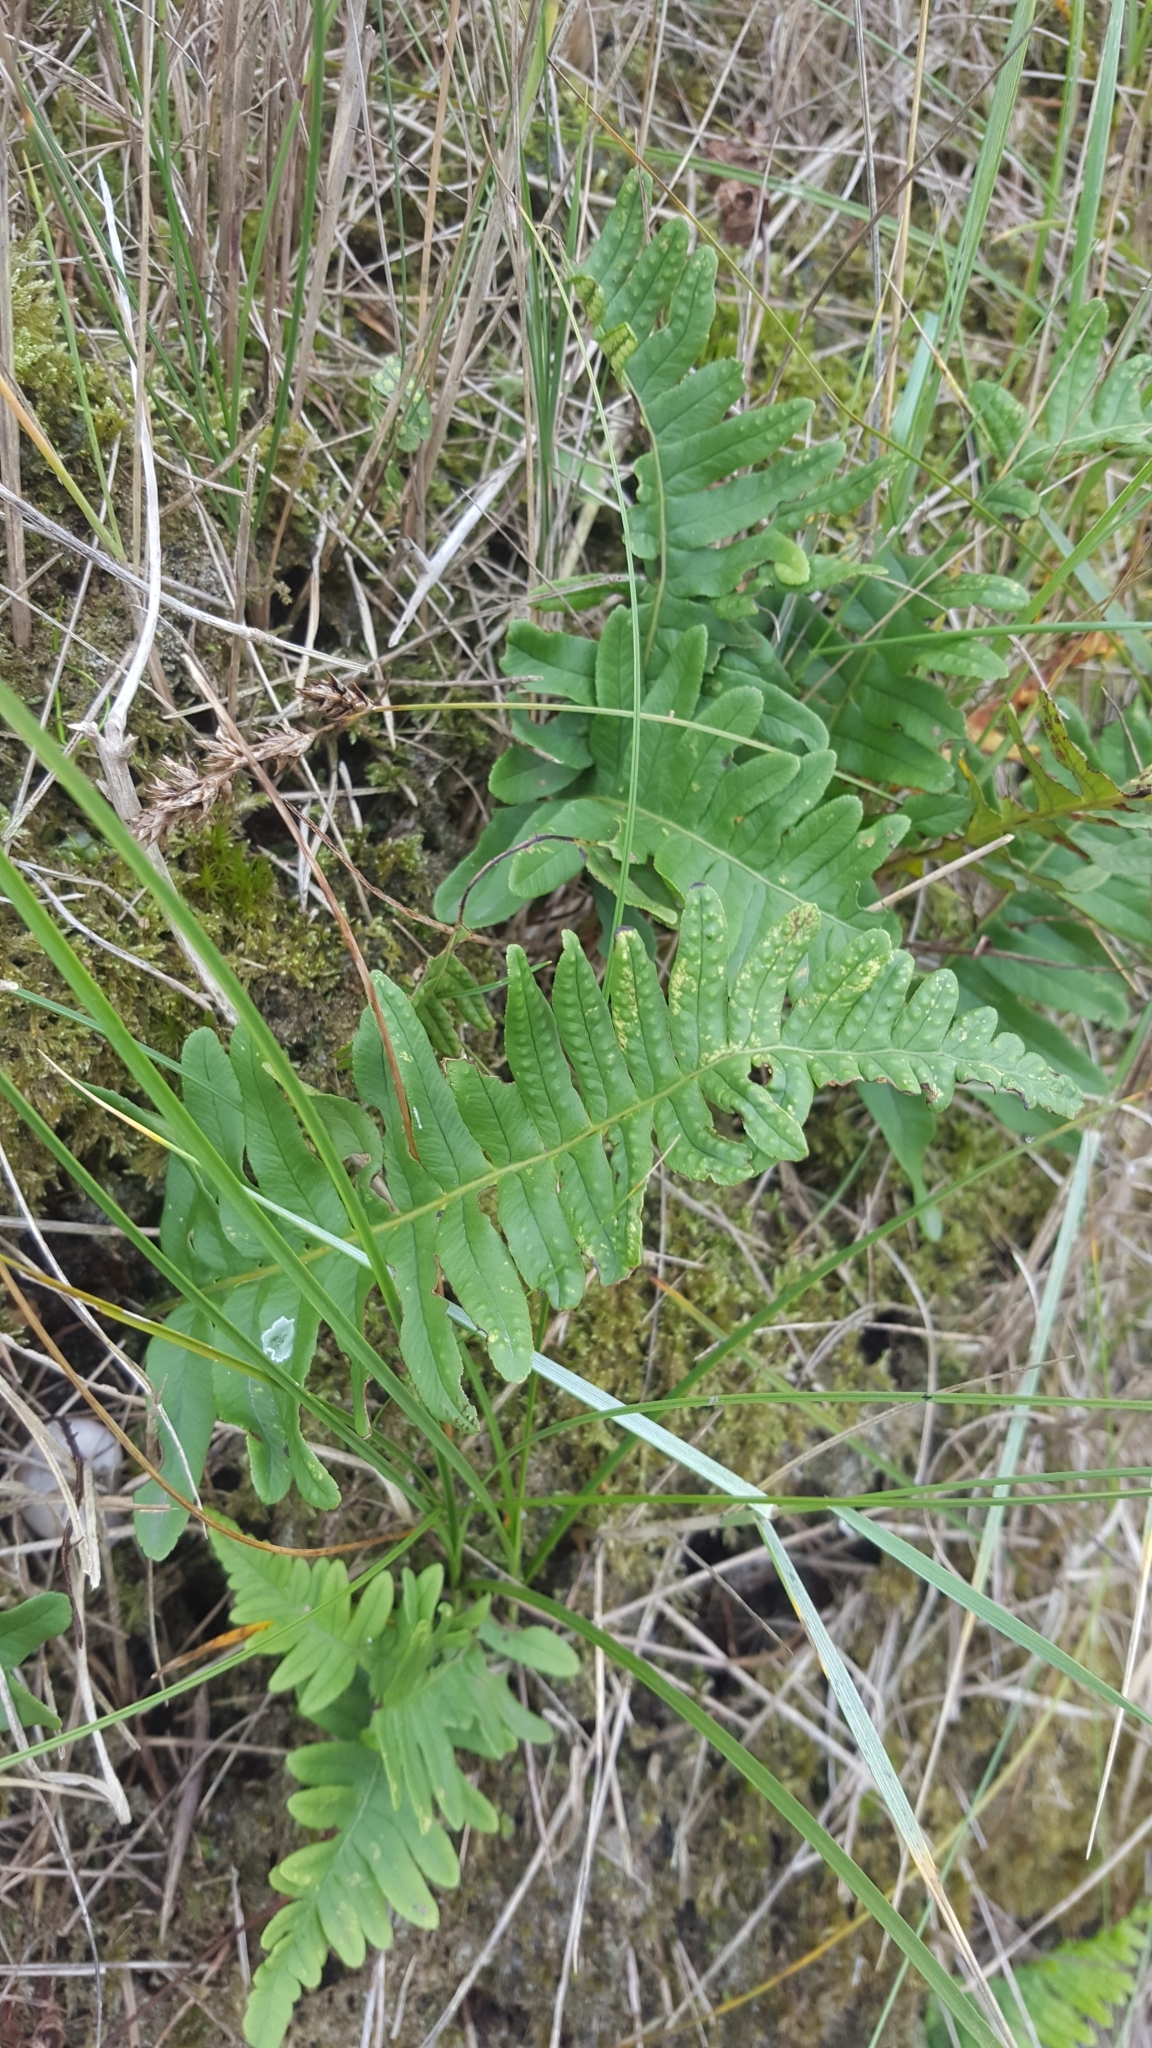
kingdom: Plantae
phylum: Tracheophyta
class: Polypodiopsida
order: Polypodiales
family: Polypodiaceae
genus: Polypodium
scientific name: Polypodium vulgare
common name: Common polypody
